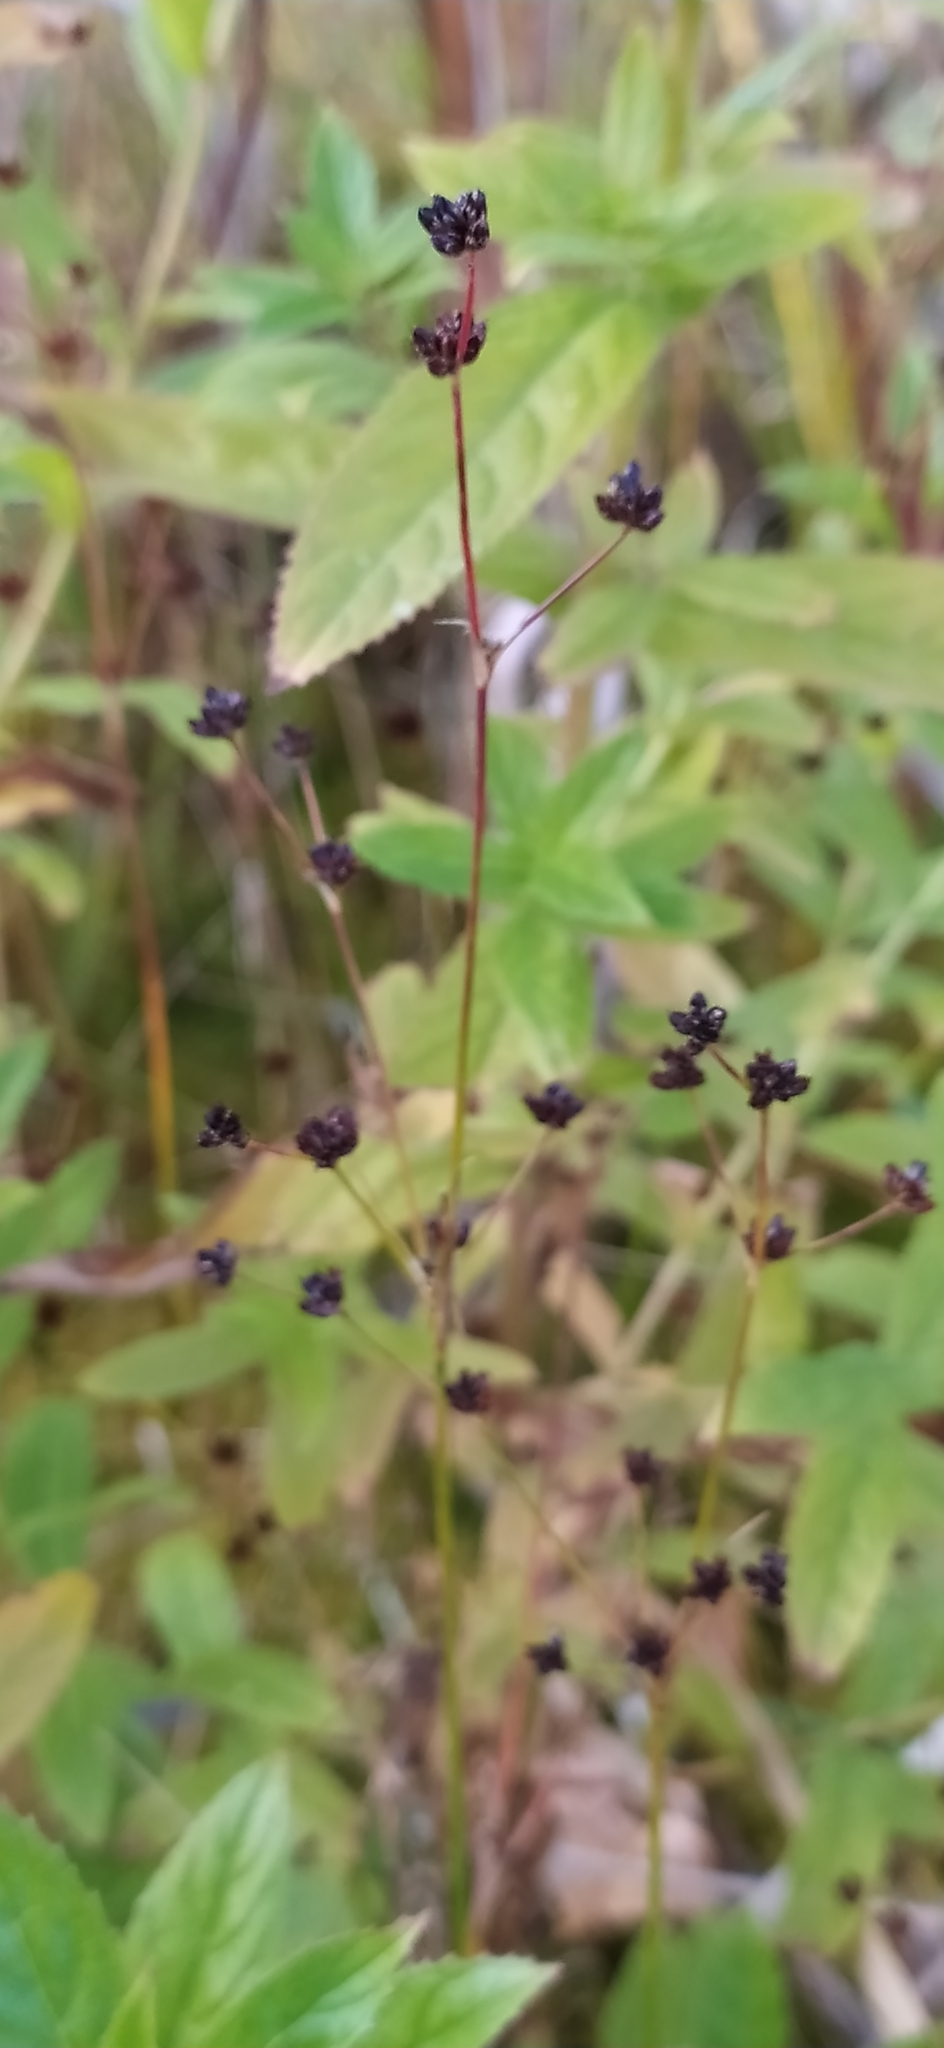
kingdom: Plantae
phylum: Tracheophyta
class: Liliopsida
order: Poales
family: Juncaceae
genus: Juncus
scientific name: Juncus alpinoarticulatus
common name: Alpine rush
